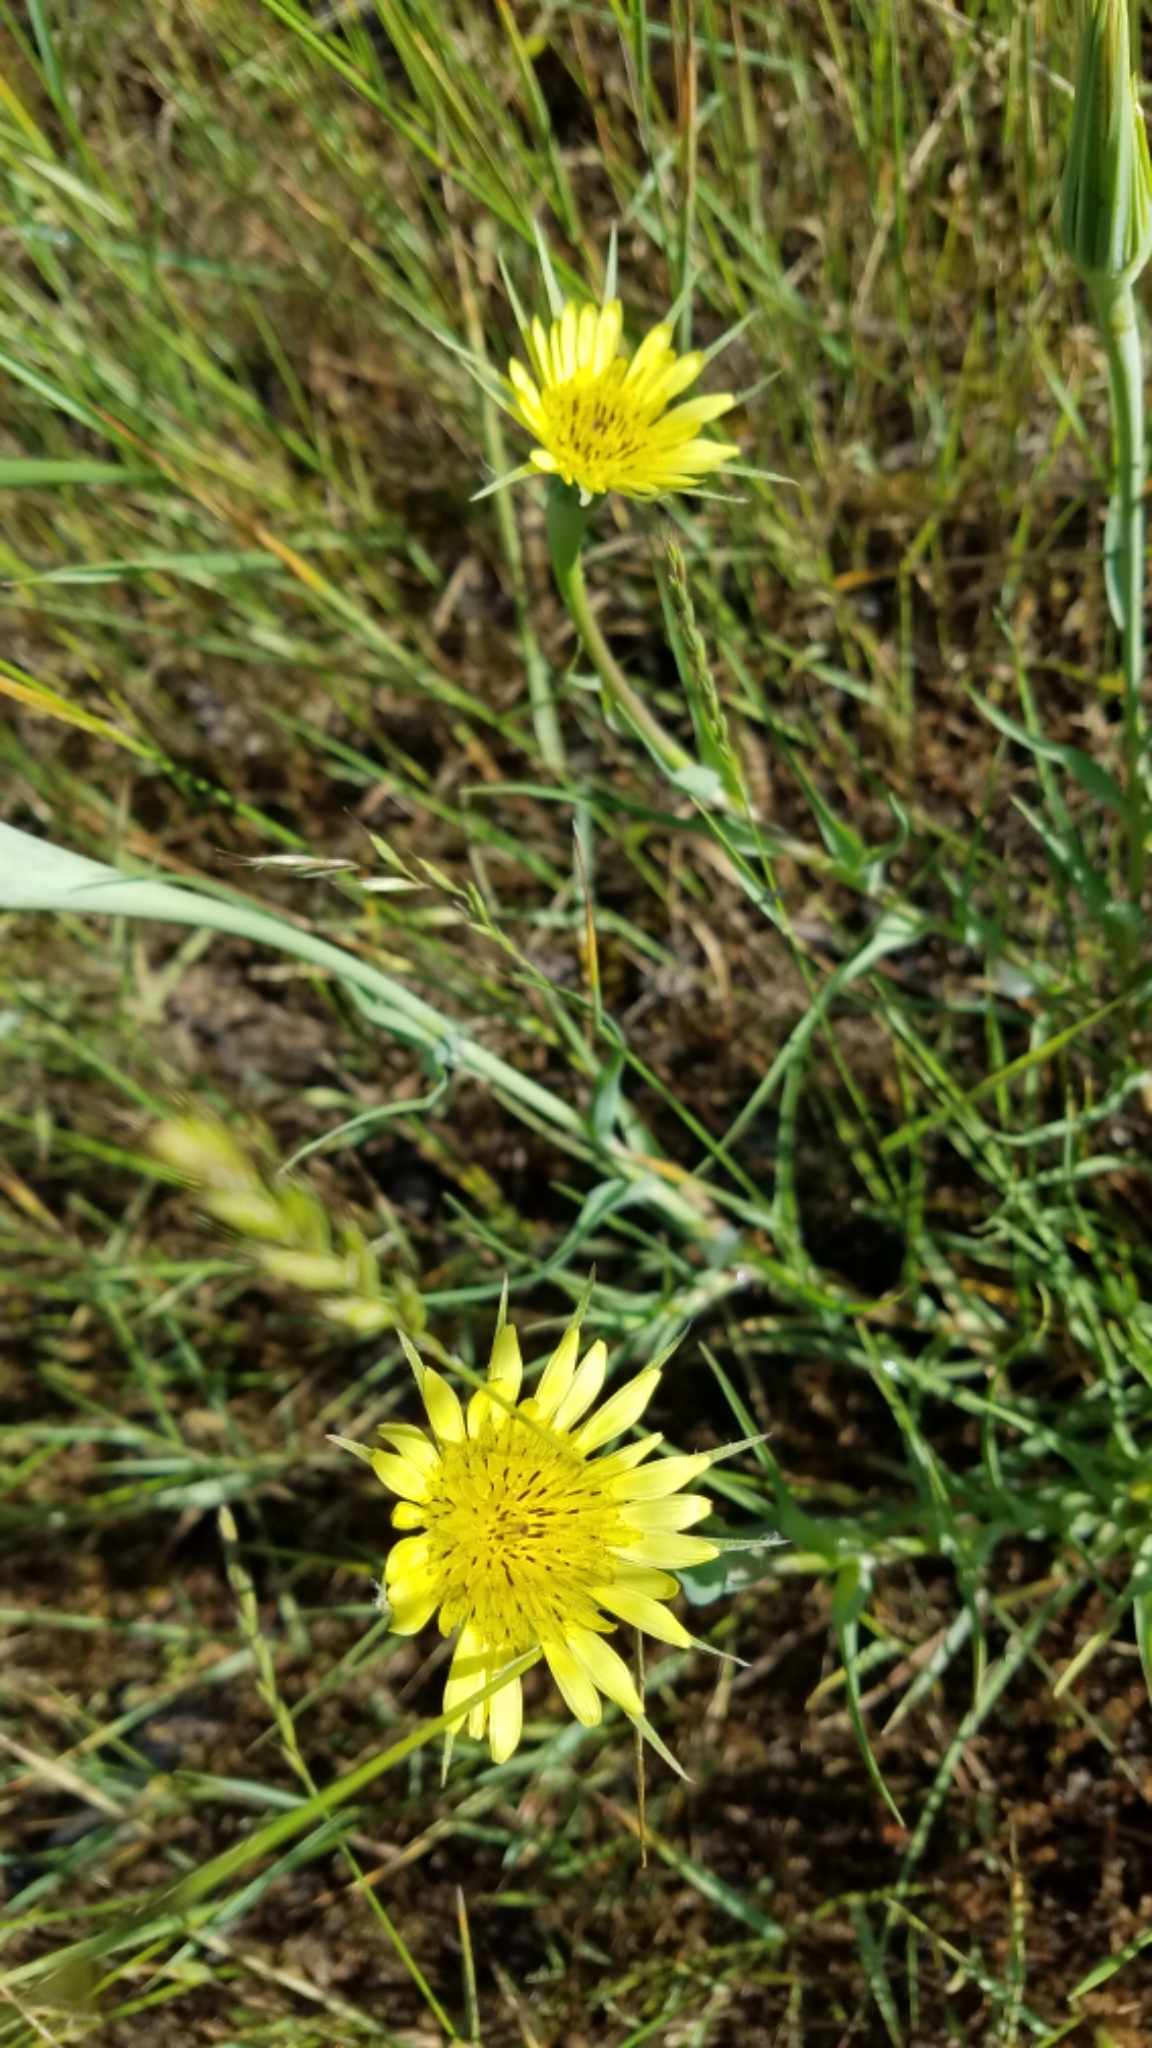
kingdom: Plantae
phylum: Tracheophyta
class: Magnoliopsida
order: Asterales
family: Asteraceae
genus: Tragopogon
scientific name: Tragopogon dubius
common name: Yellow salsify
